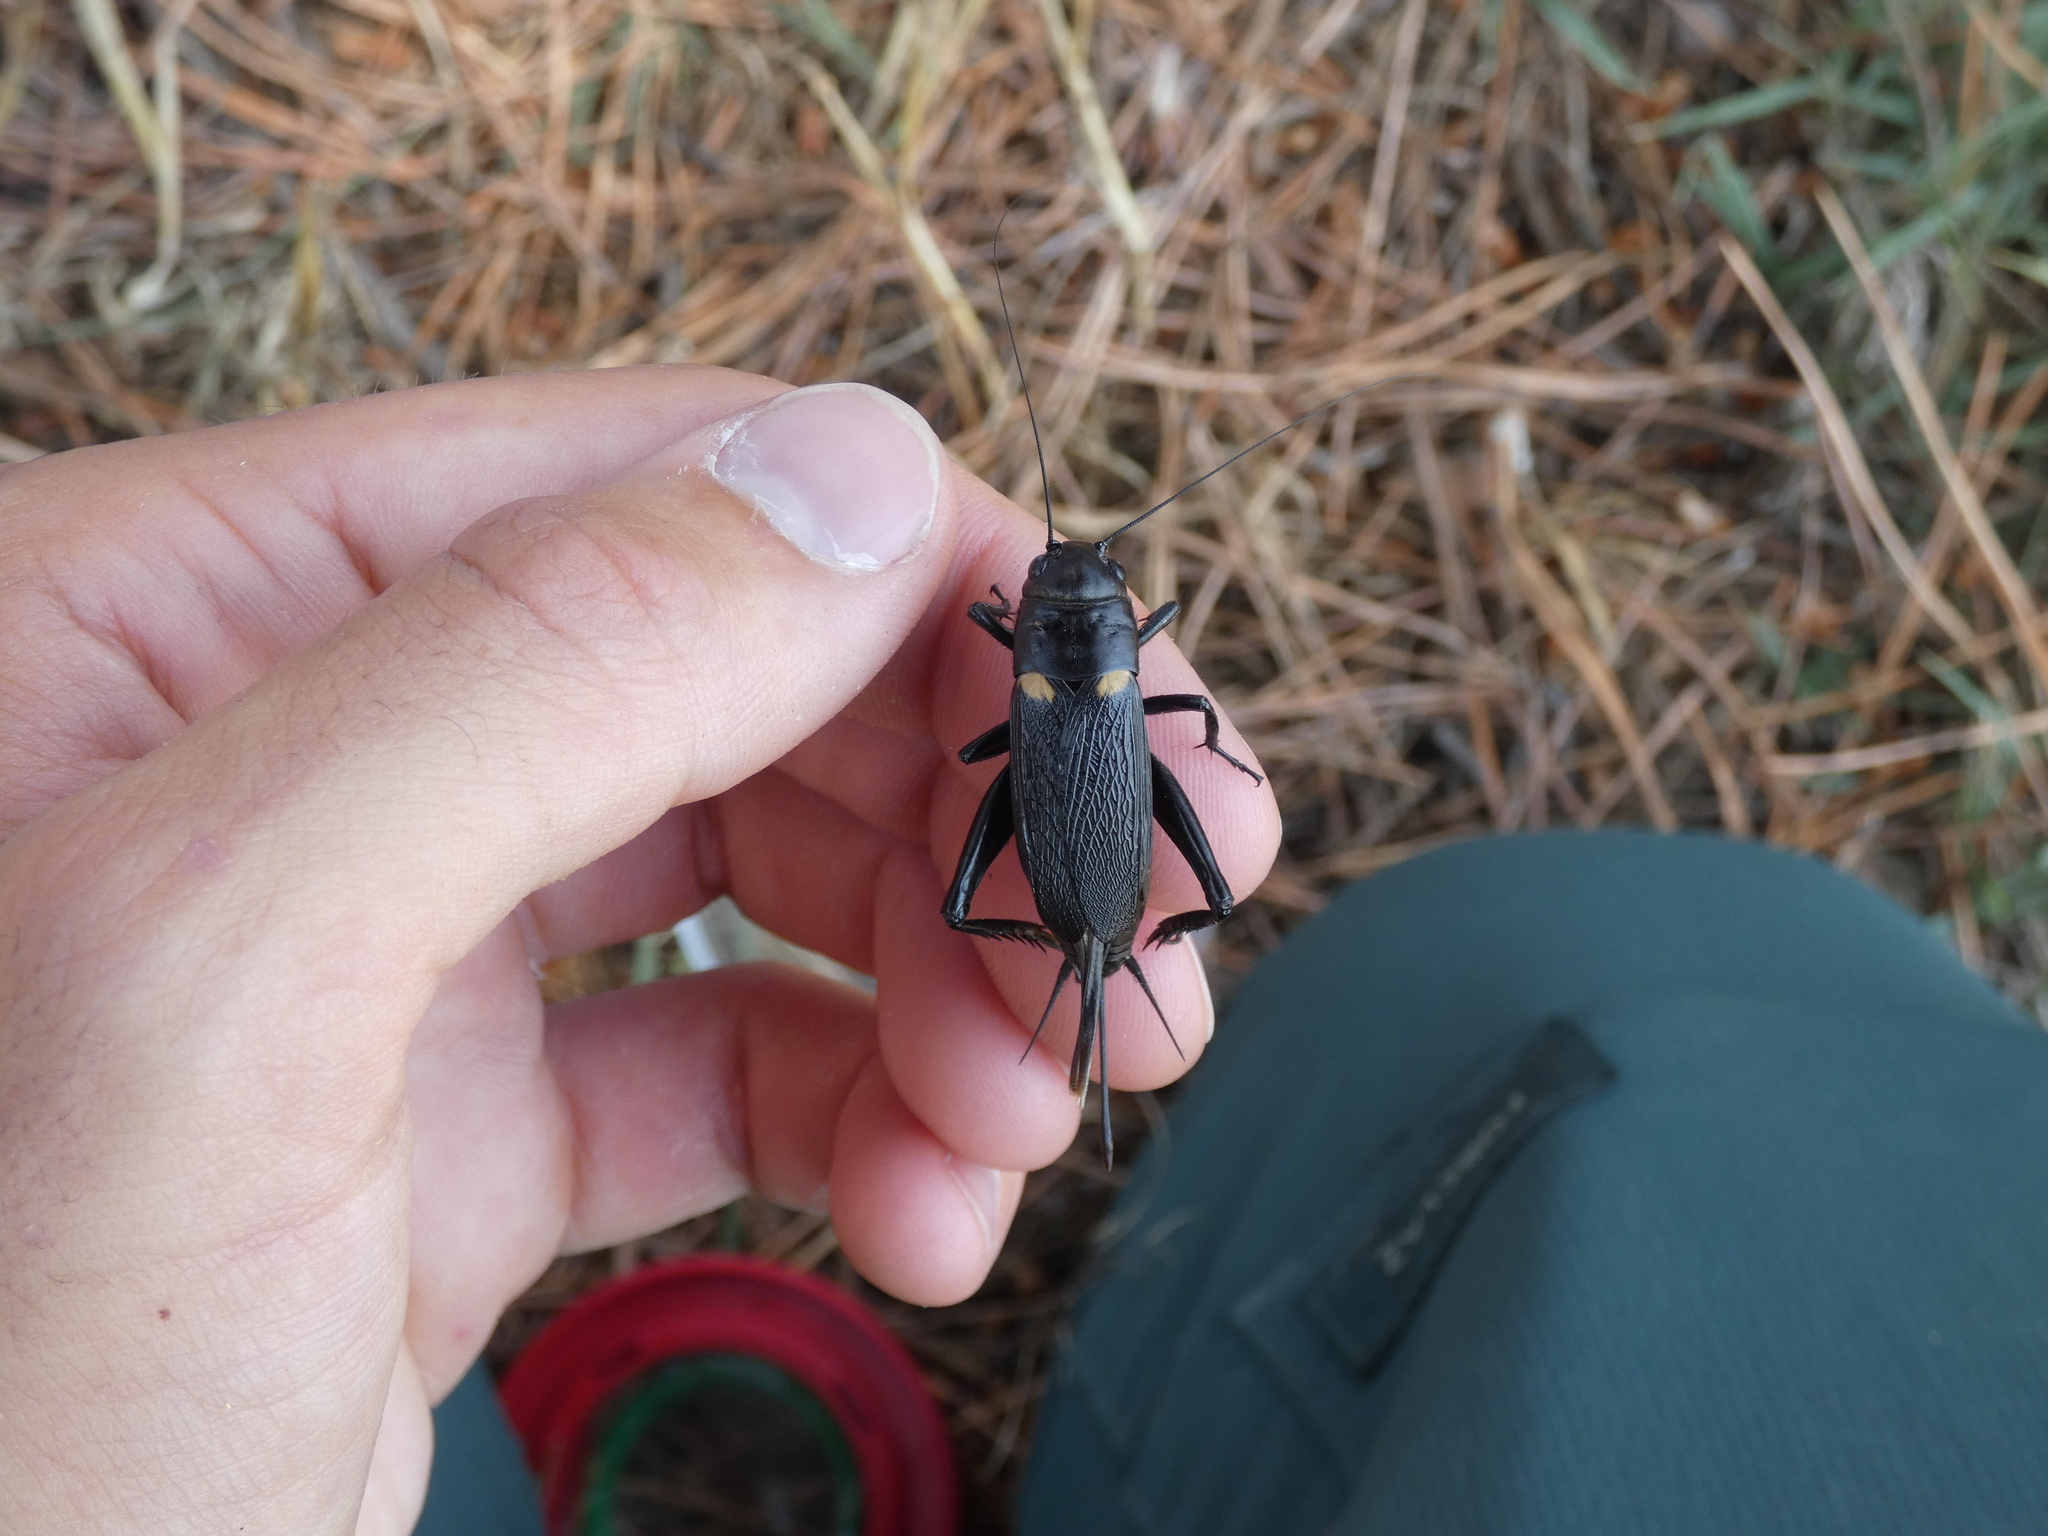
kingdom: Animalia
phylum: Arthropoda
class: Insecta
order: Orthoptera
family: Gryllidae
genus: Gryllus
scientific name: Gryllus bimaculatus
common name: Two-spotted cricket
